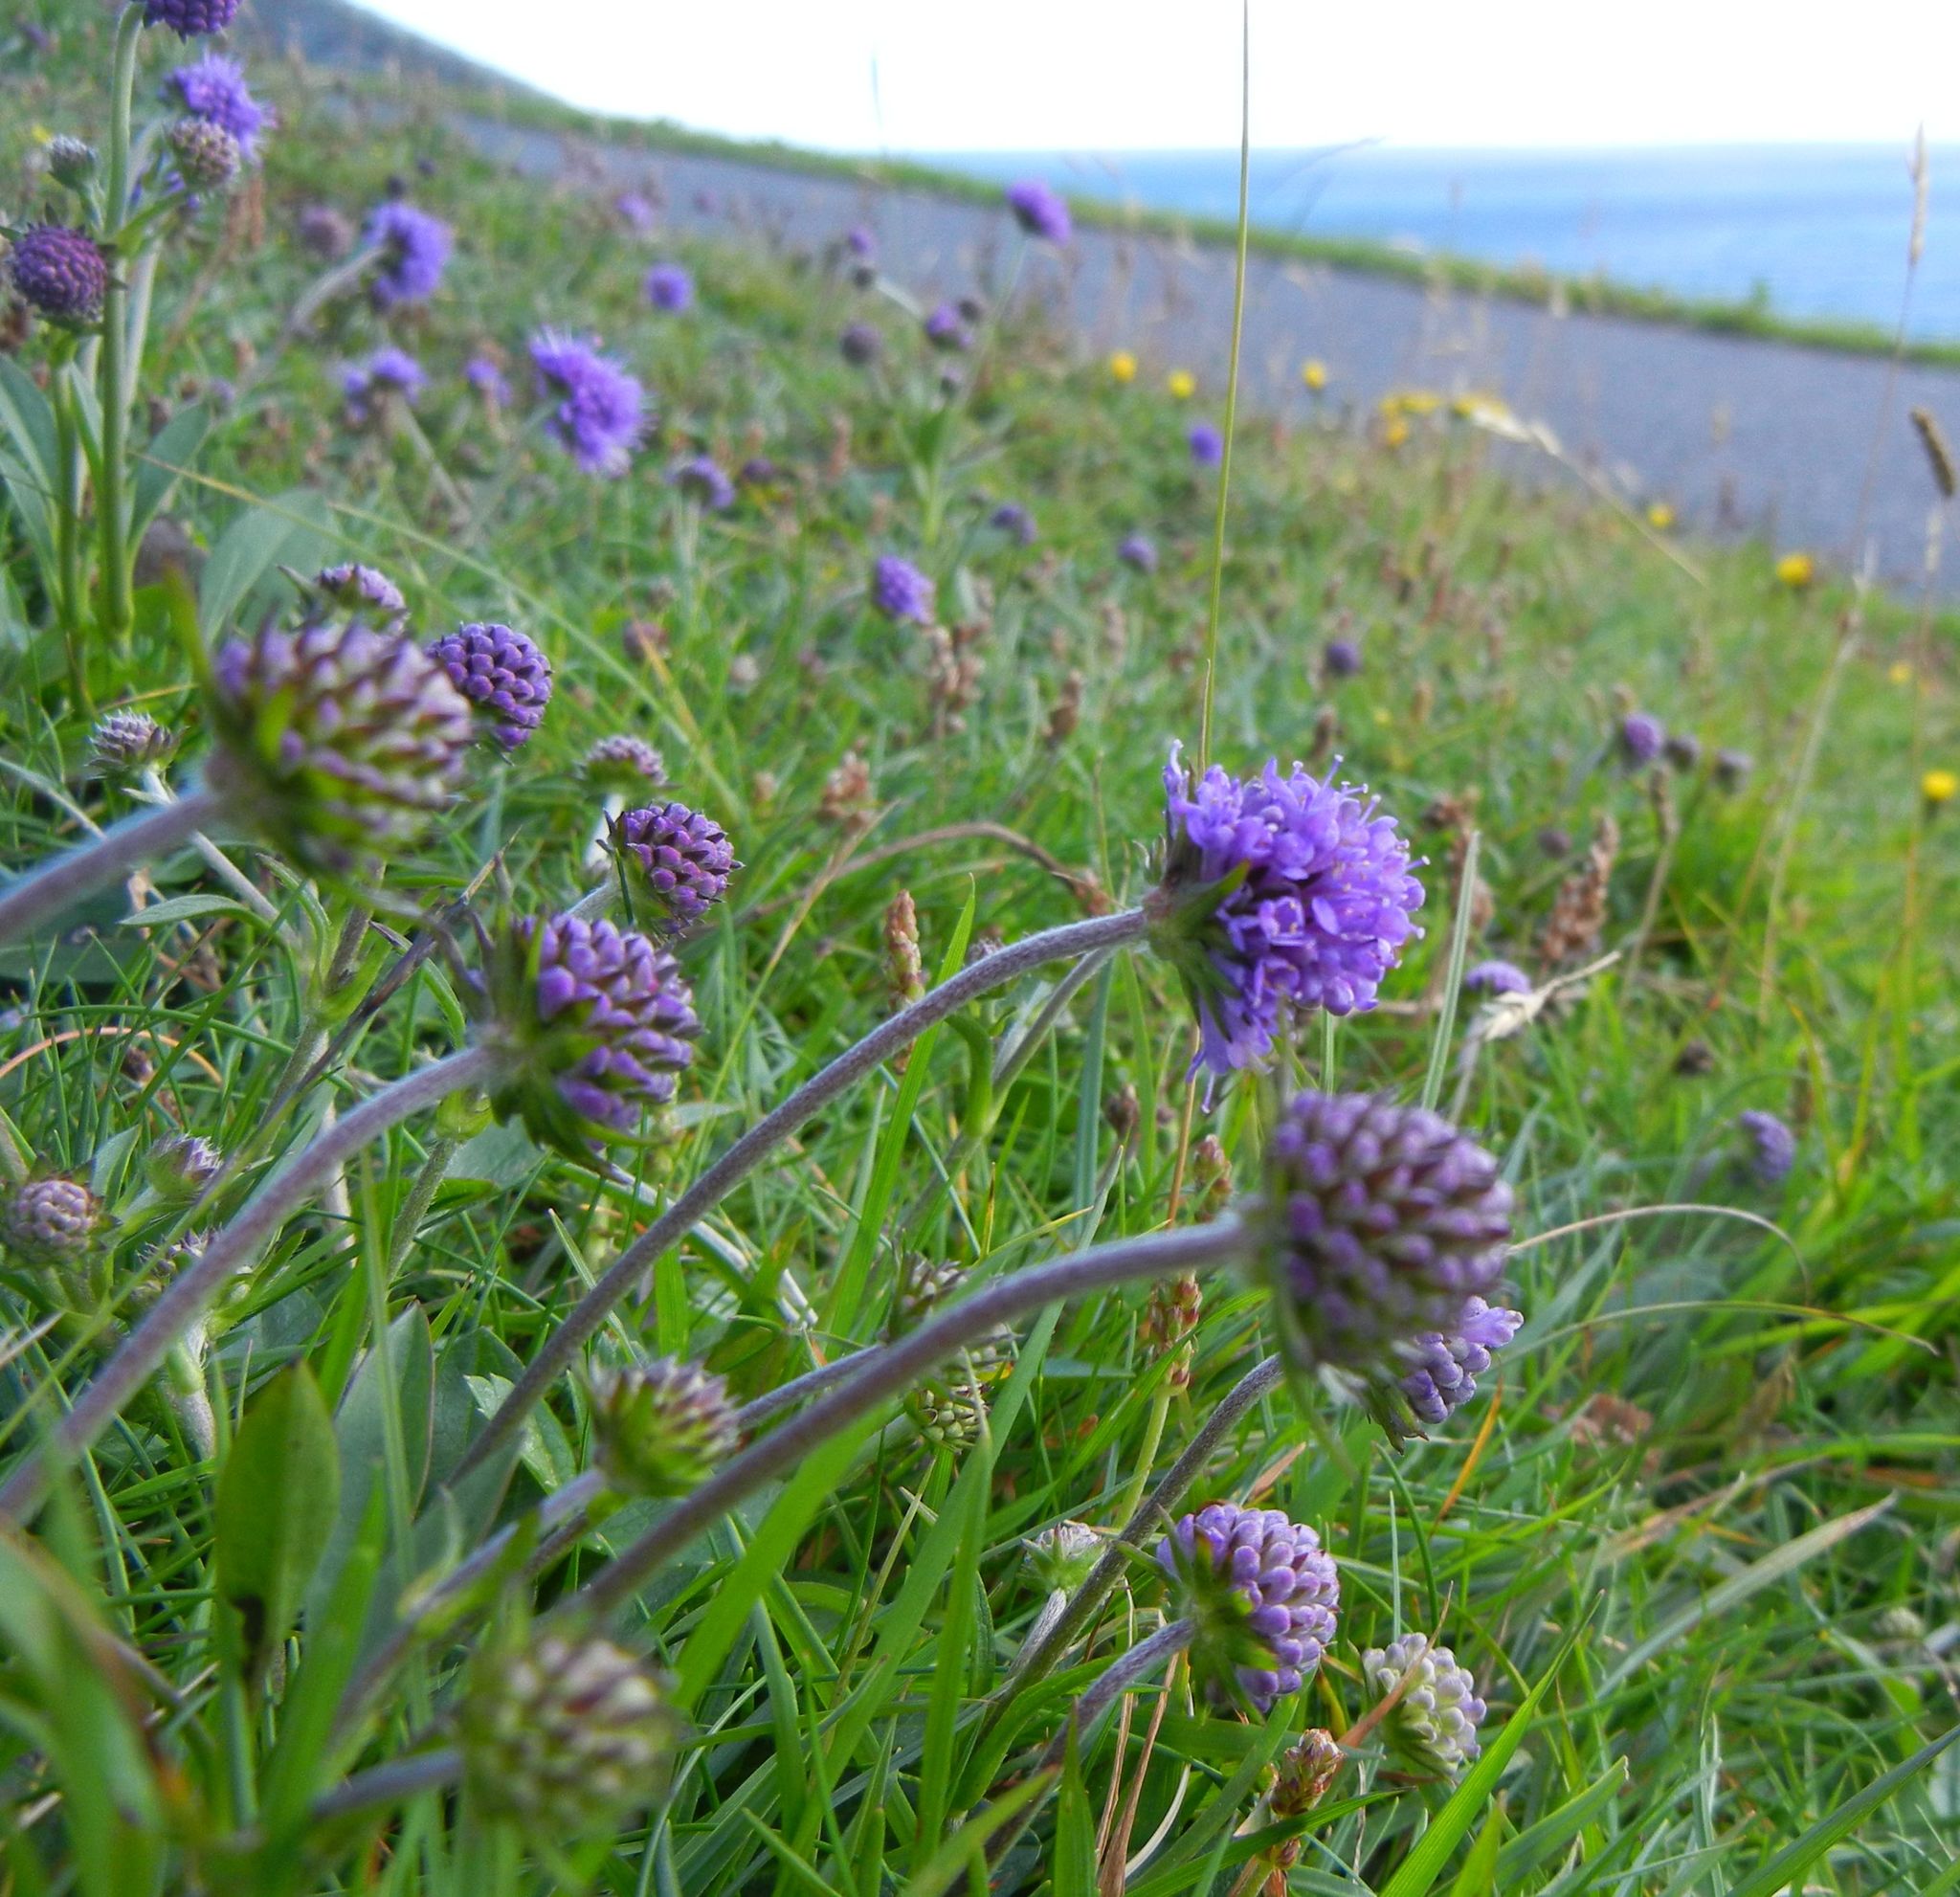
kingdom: Plantae
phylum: Tracheophyta
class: Magnoliopsida
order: Dipsacales
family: Caprifoliaceae
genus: Succisa
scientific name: Succisa pratensis
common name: Devil's-bit
